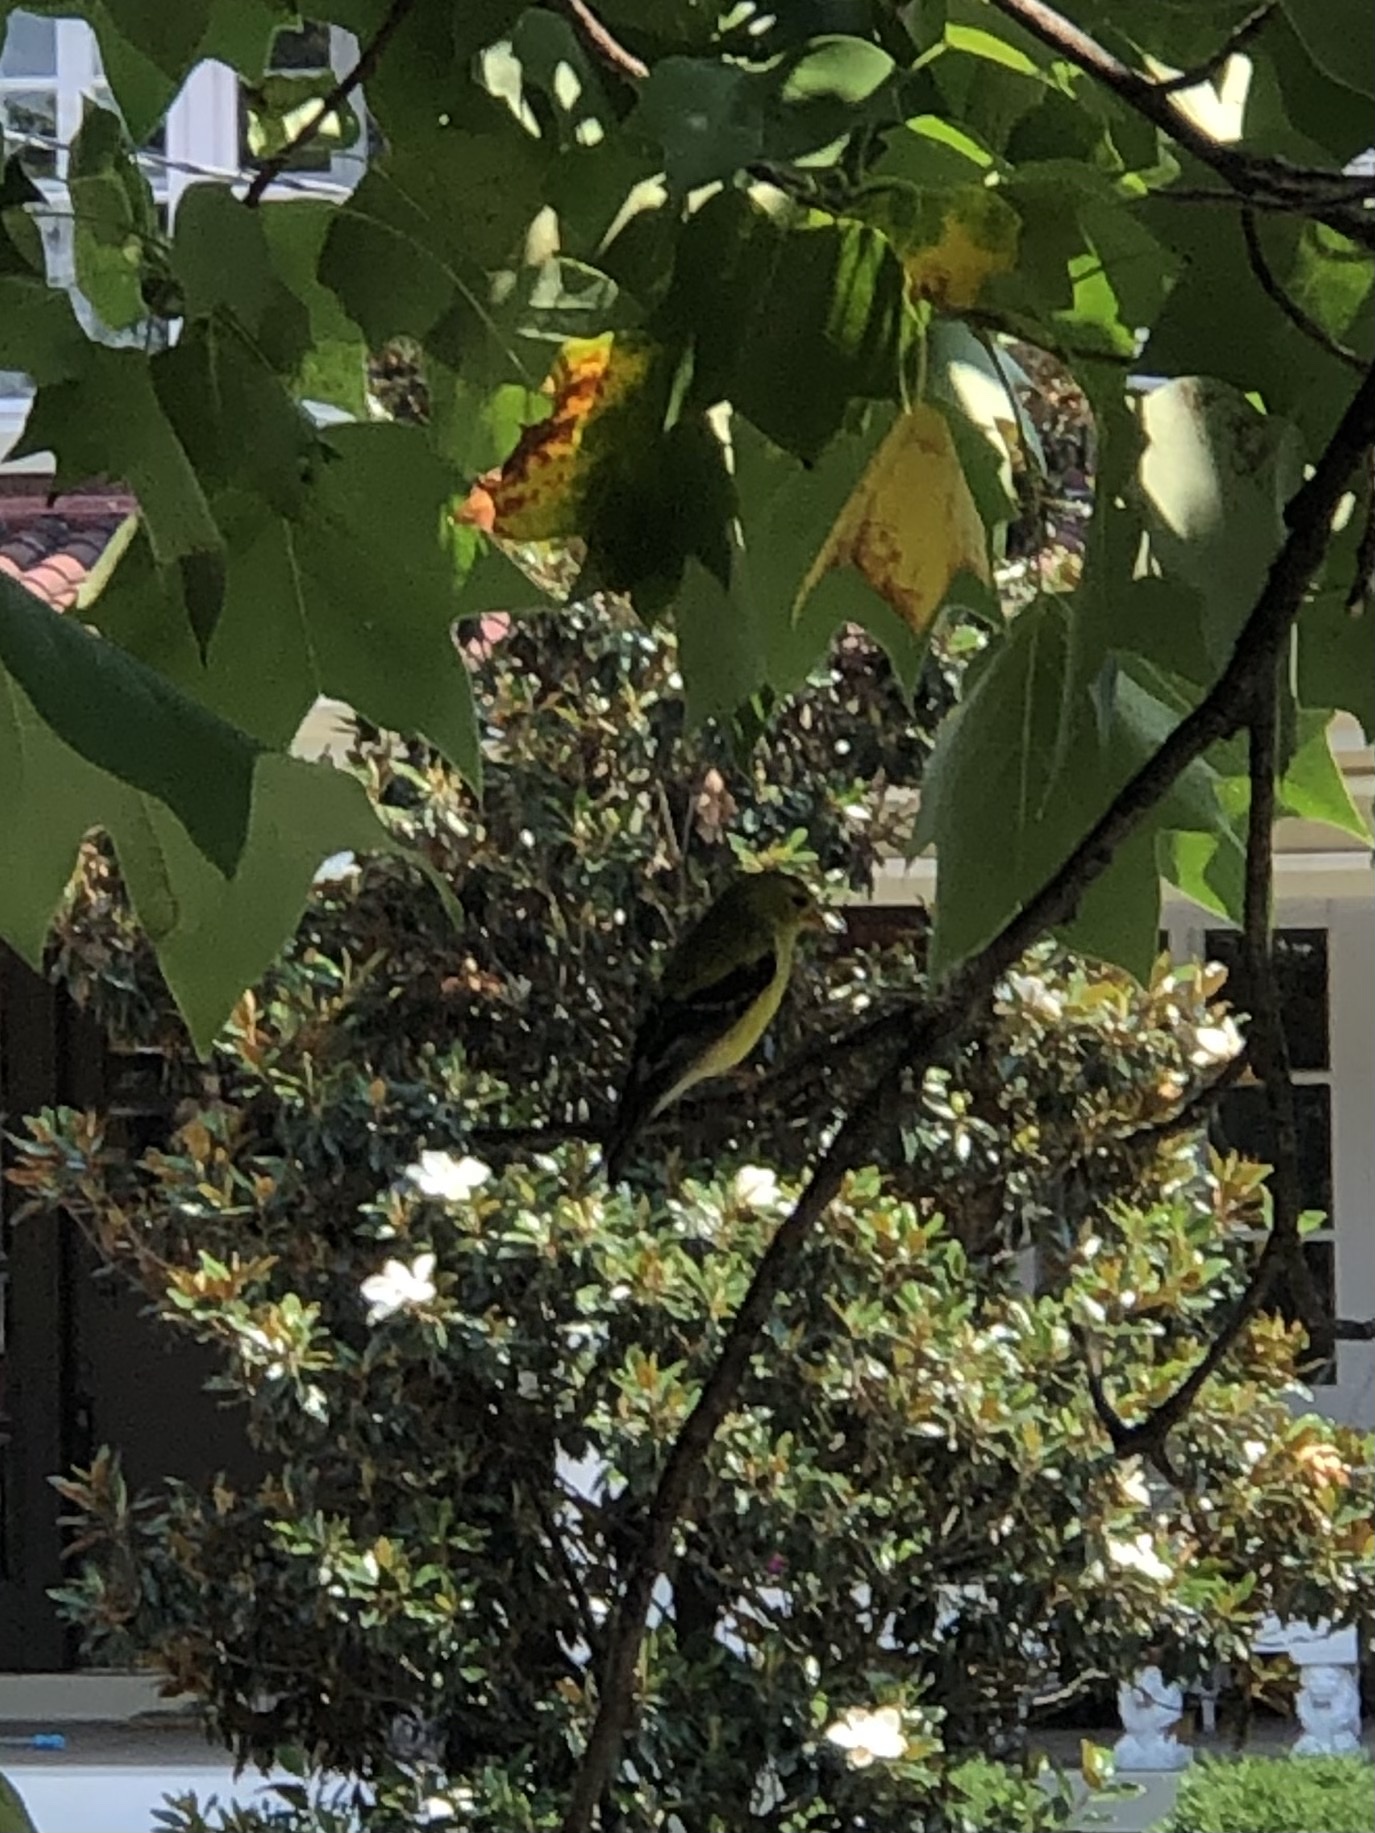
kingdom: Animalia
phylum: Chordata
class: Aves
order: Passeriformes
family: Fringillidae
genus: Spinus
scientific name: Spinus tristis
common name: American goldfinch
